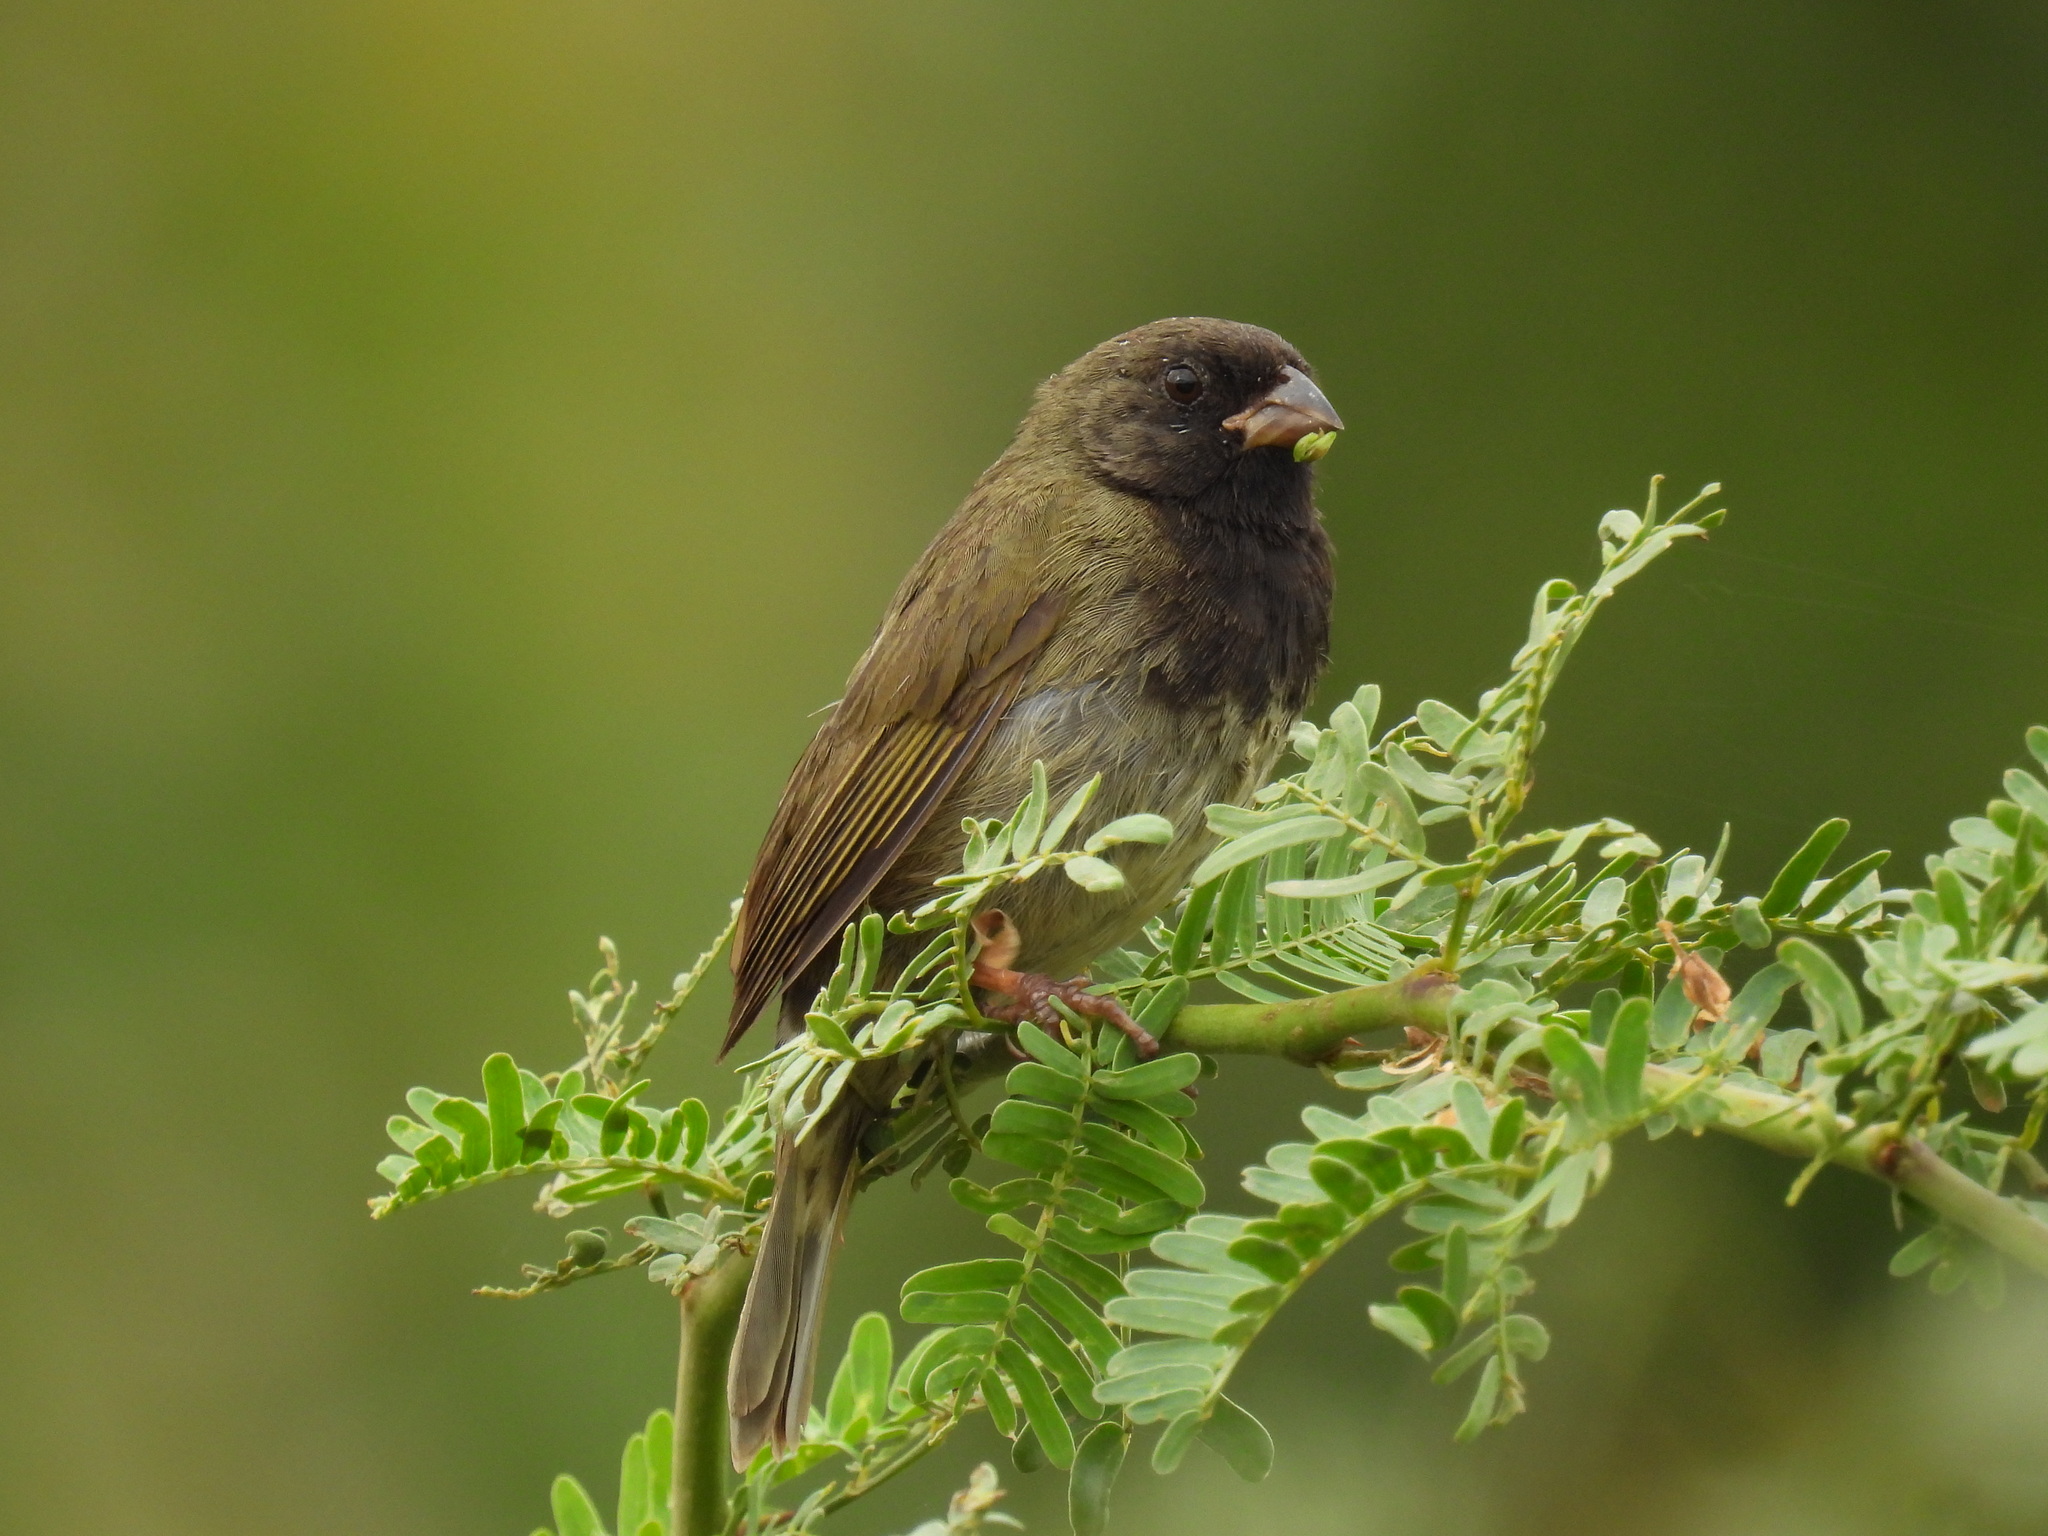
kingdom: Animalia
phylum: Chordata
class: Aves
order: Passeriformes
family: Thraupidae
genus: Melanospiza
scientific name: Melanospiza bicolor
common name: Black-faced grassquit
